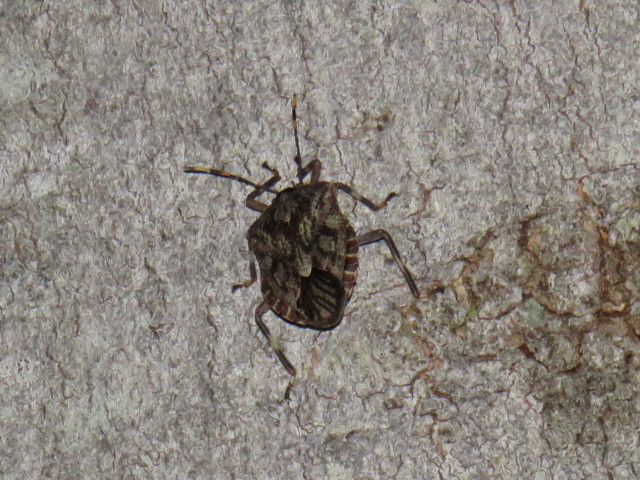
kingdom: Animalia
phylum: Arthropoda
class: Insecta
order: Hemiptera
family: Pentatomidae
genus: Coenomorpha
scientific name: Coenomorpha nervosa
